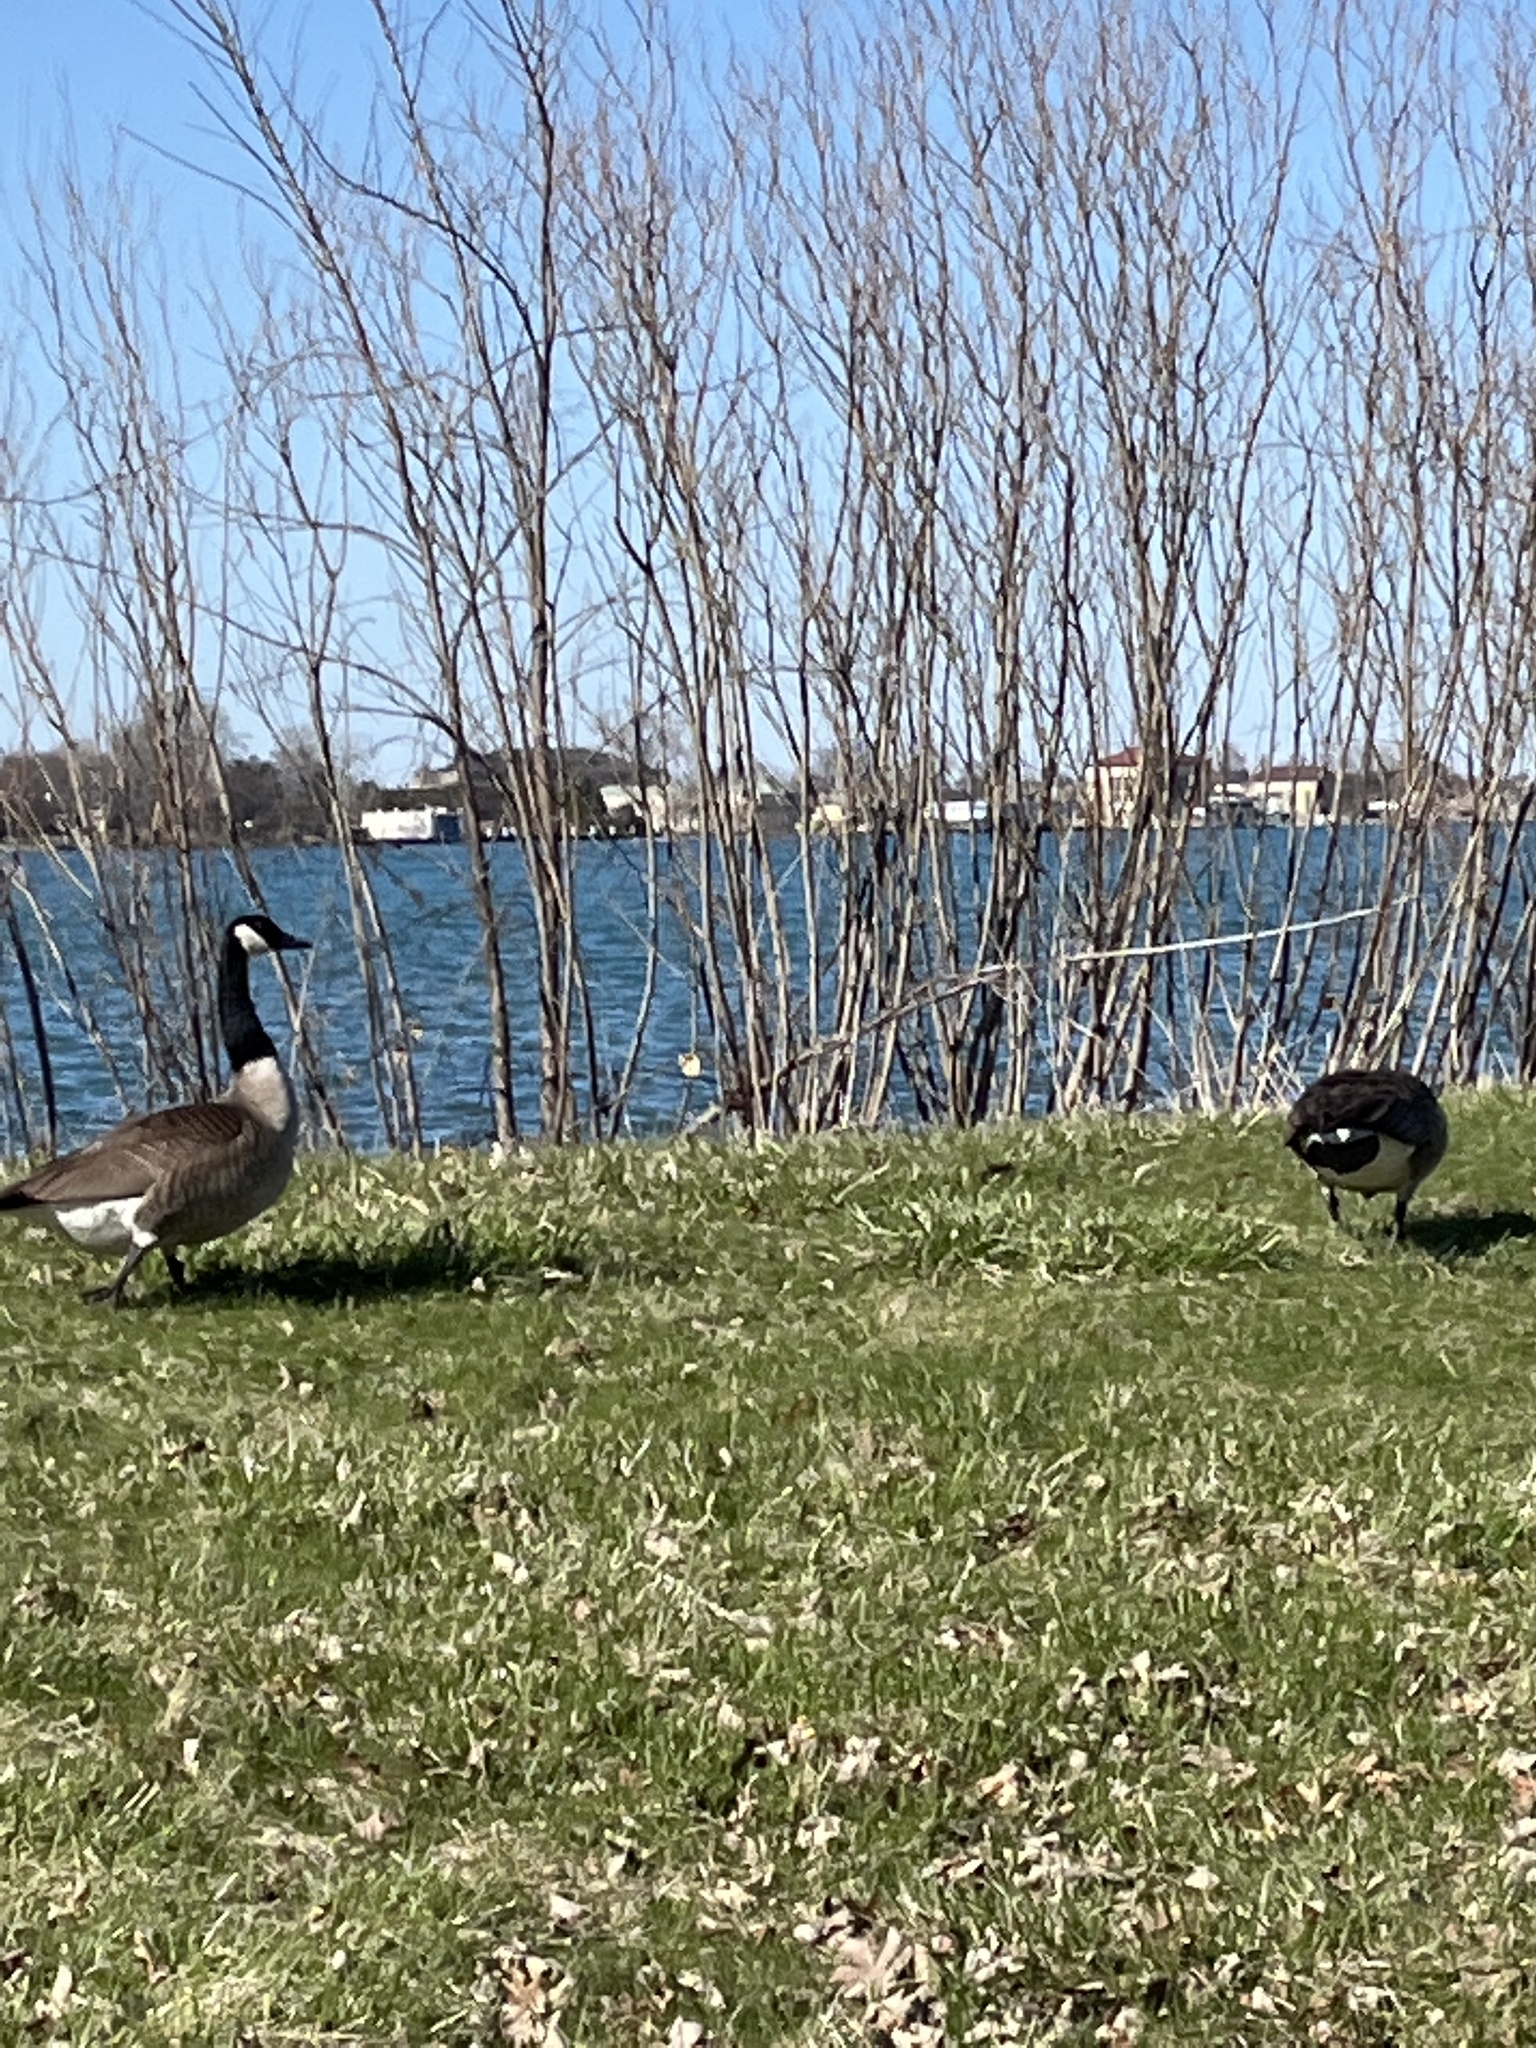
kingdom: Animalia
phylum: Chordata
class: Aves
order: Anseriformes
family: Anatidae
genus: Branta
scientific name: Branta canadensis
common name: Canada goose
